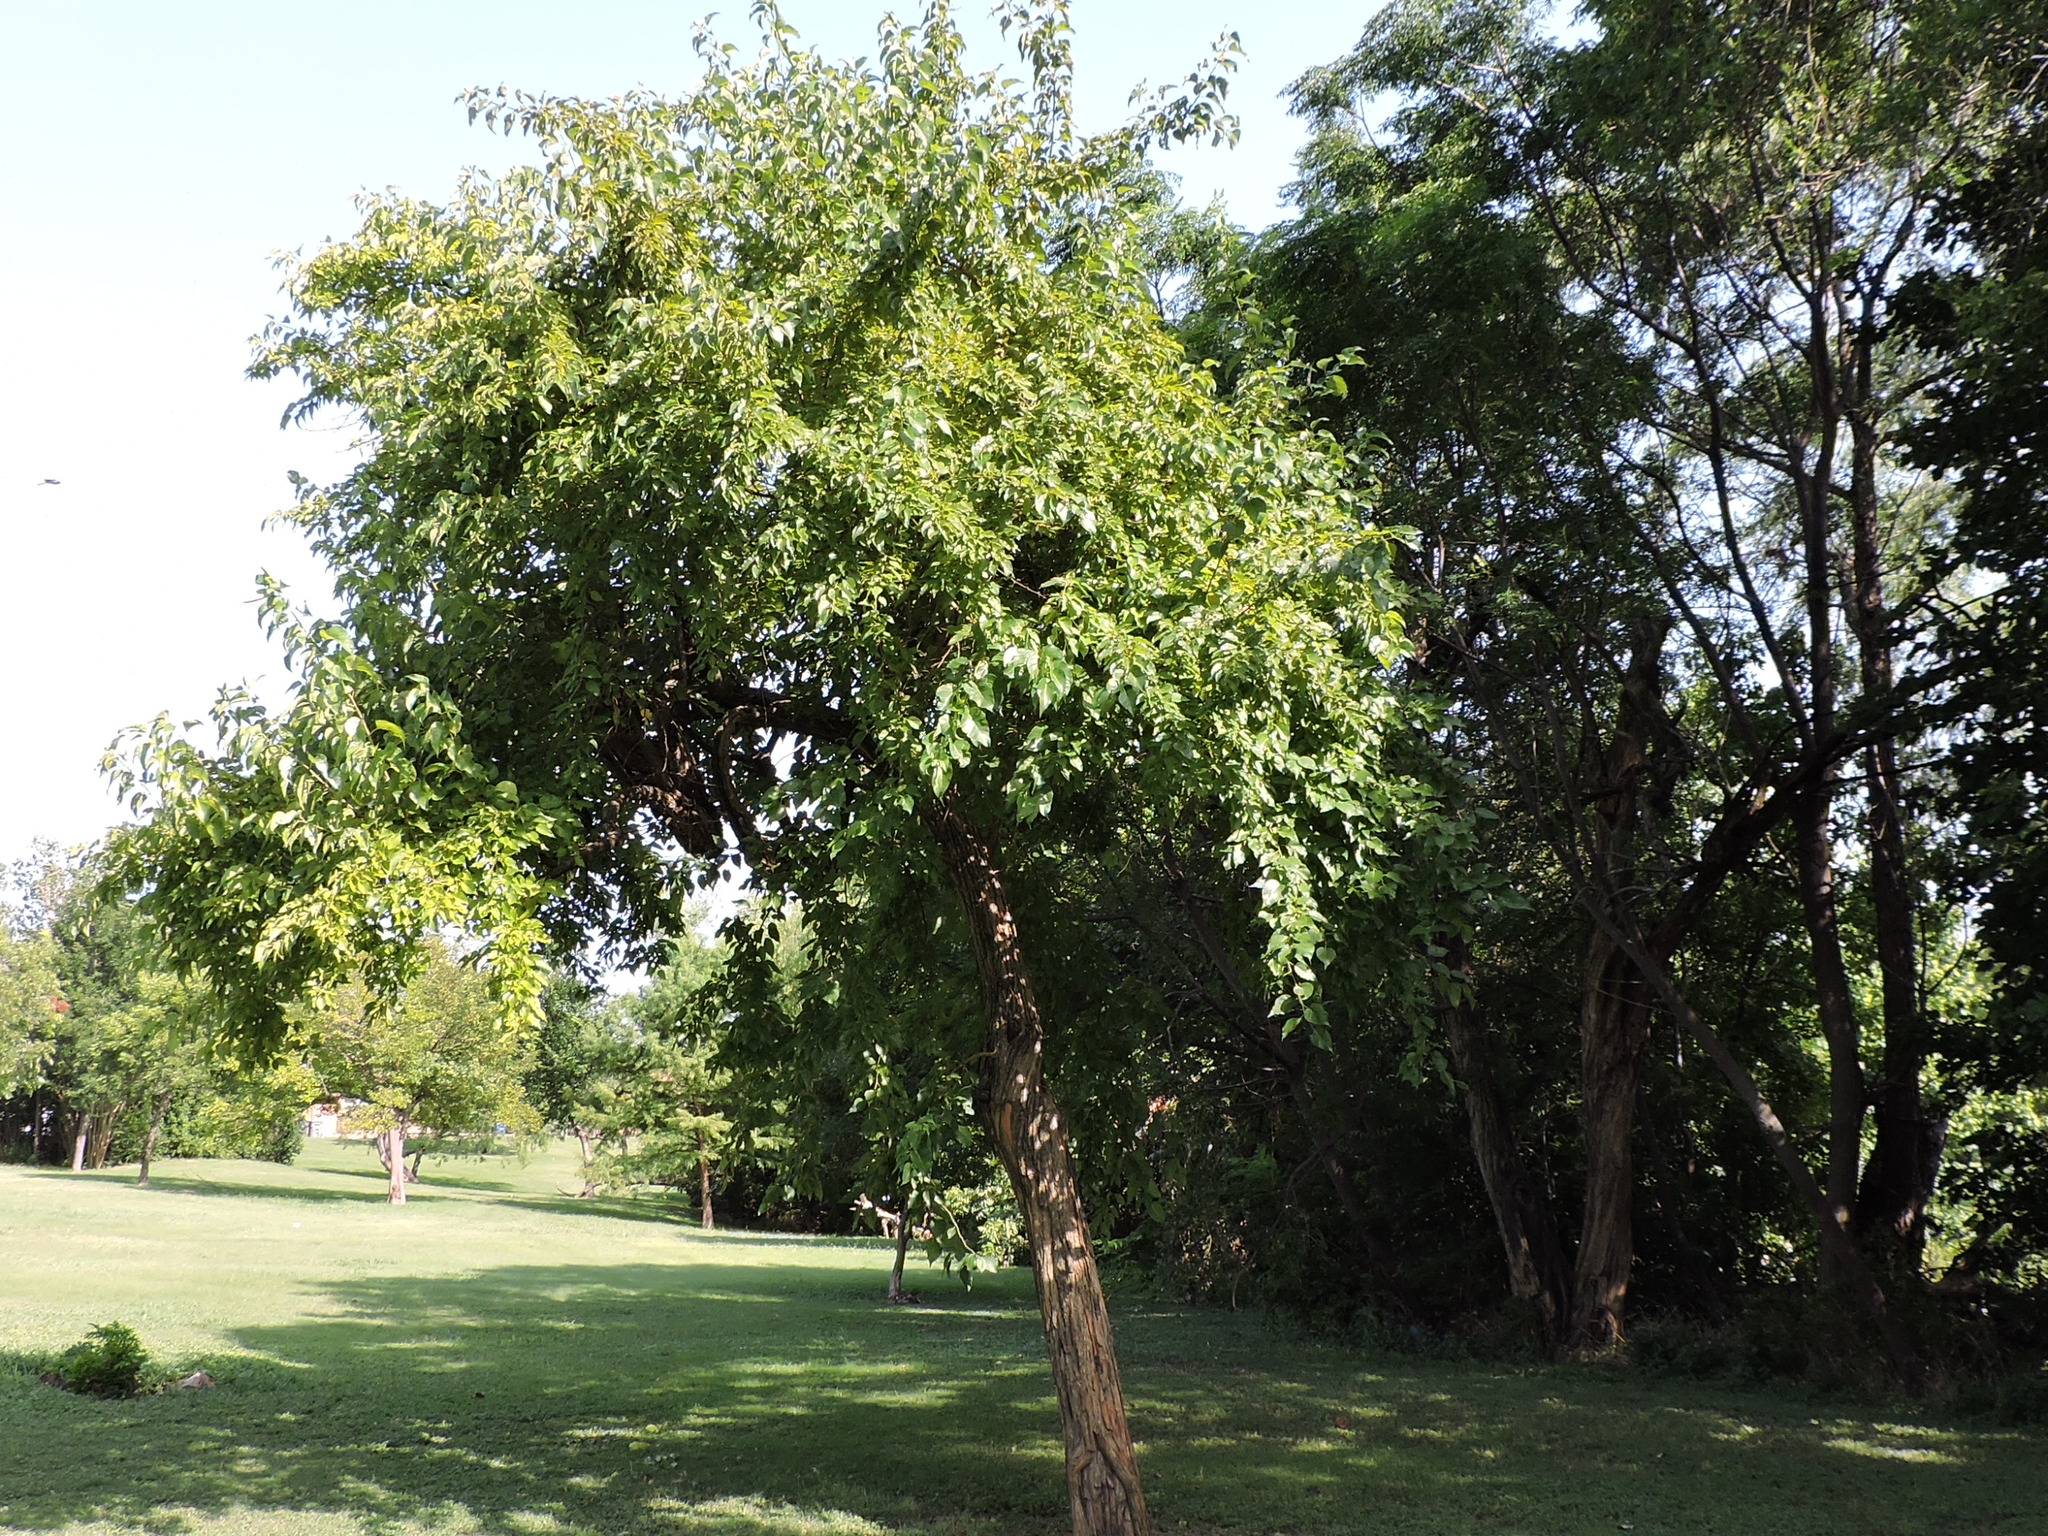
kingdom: Plantae
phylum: Tracheophyta
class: Magnoliopsida
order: Rosales
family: Moraceae
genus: Maclura
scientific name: Maclura pomifera
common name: Osage-orange
